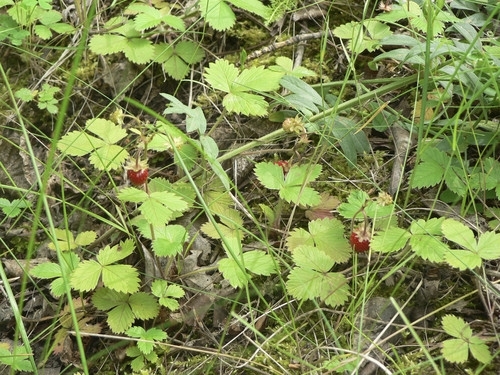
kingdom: Plantae
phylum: Tracheophyta
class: Magnoliopsida
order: Rosales
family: Rosaceae
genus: Fragaria
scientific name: Fragaria vesca
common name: Wild strawberry
